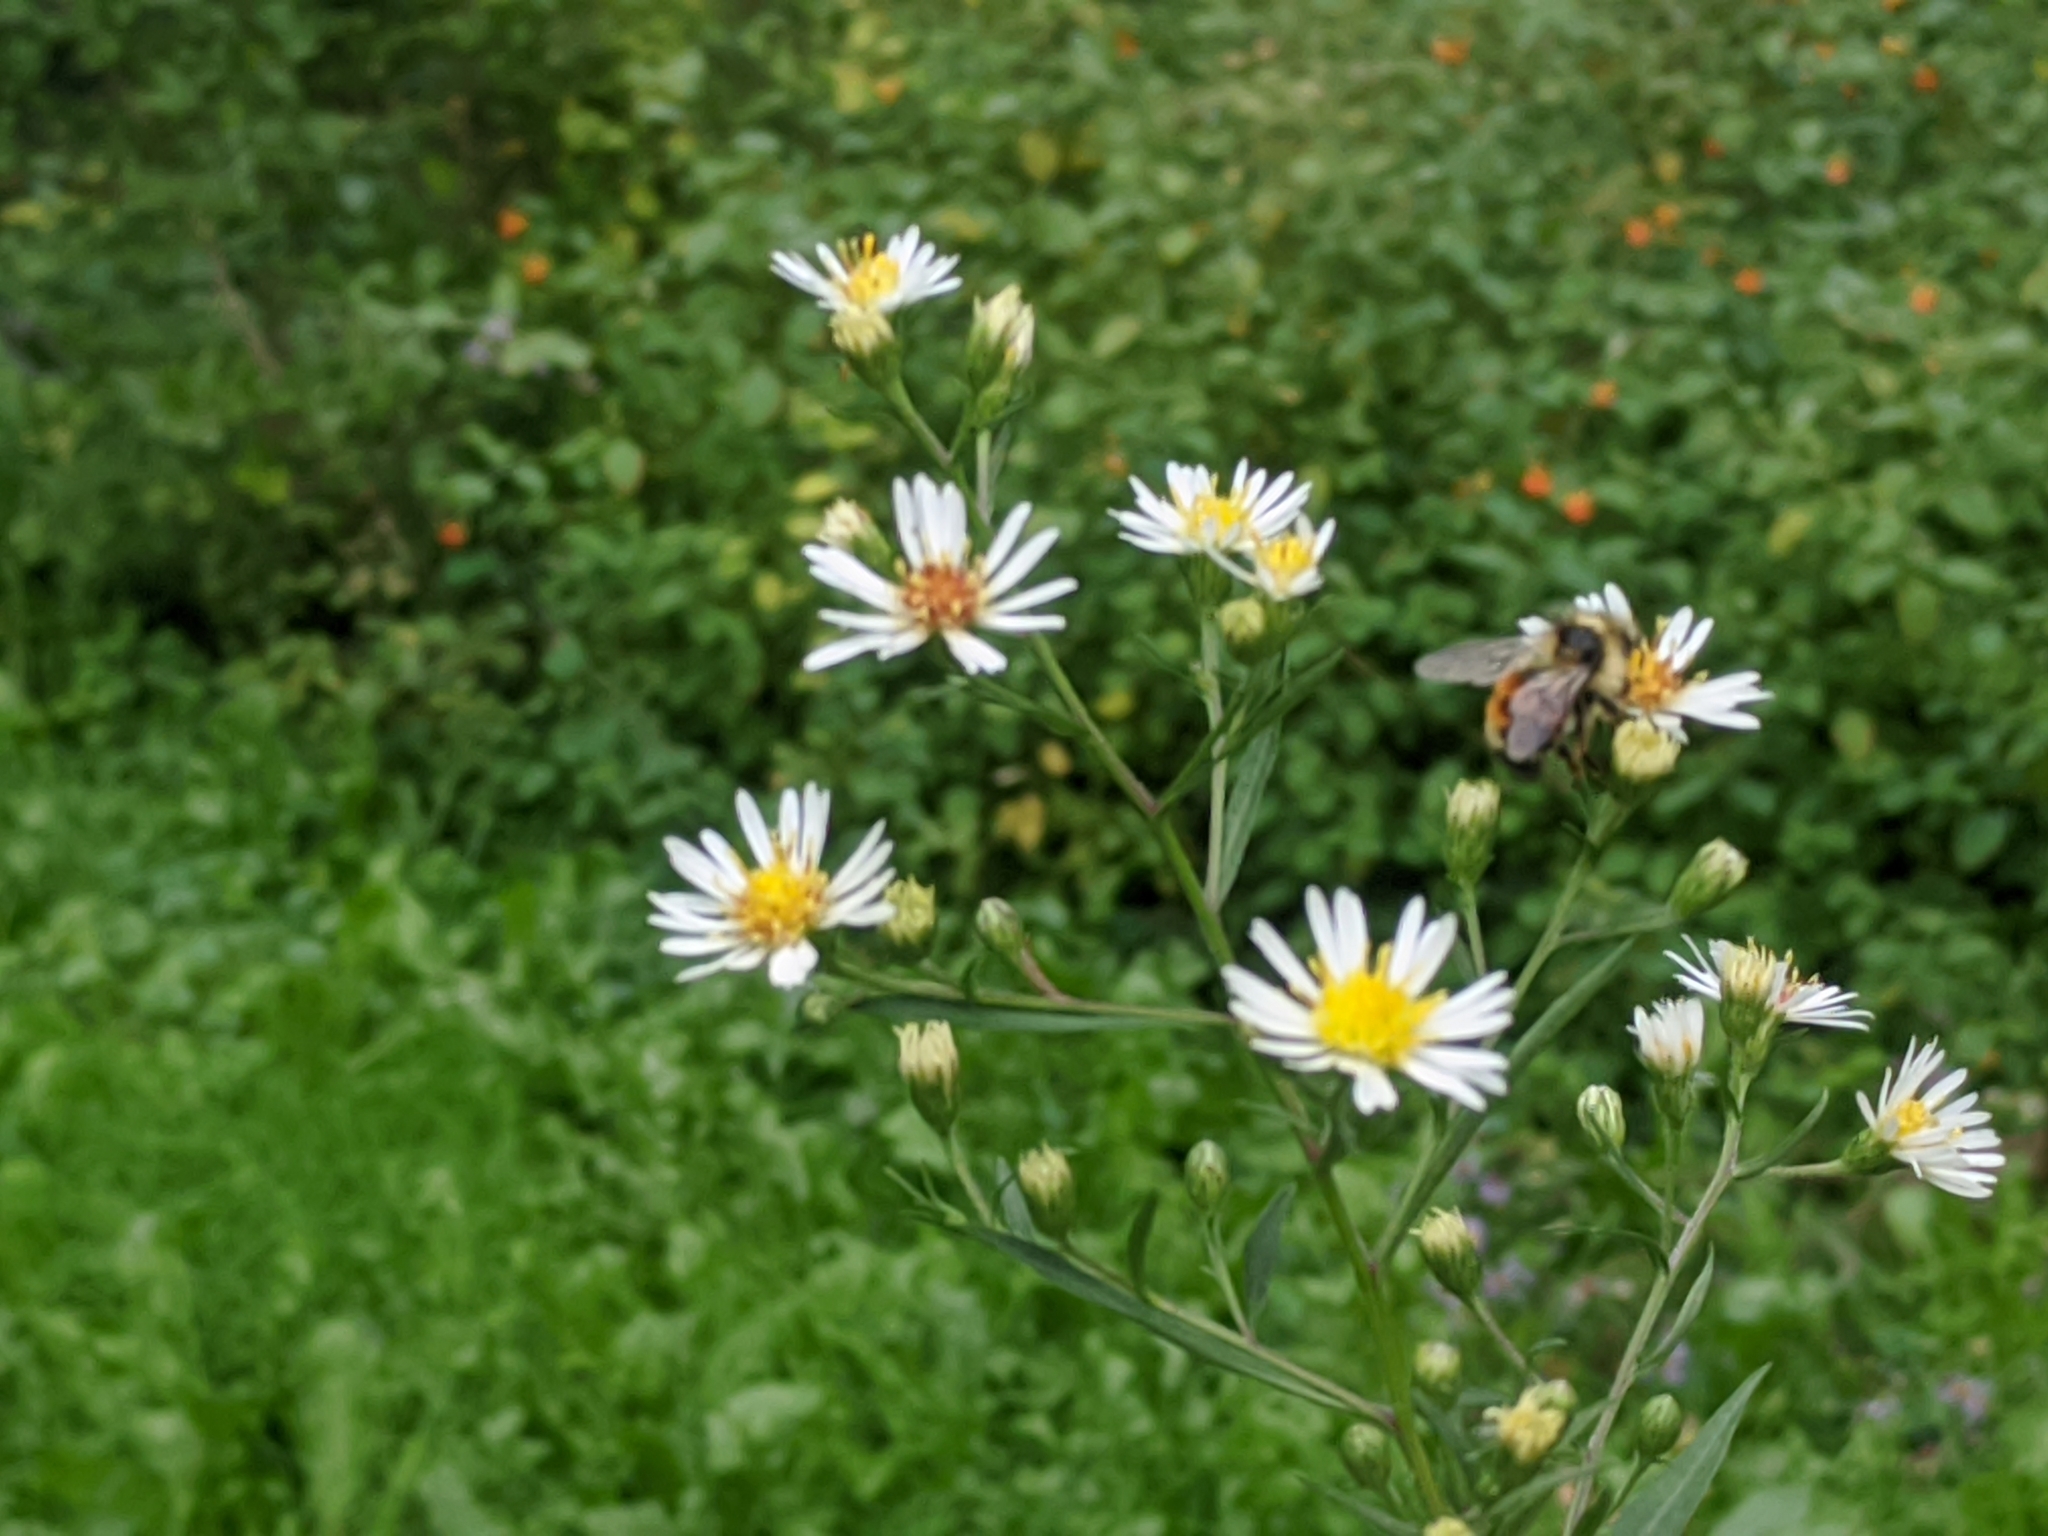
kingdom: Animalia
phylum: Arthropoda
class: Insecta
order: Hymenoptera
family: Apidae
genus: Bombus
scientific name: Bombus ternarius
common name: Tri-colored bumble bee
